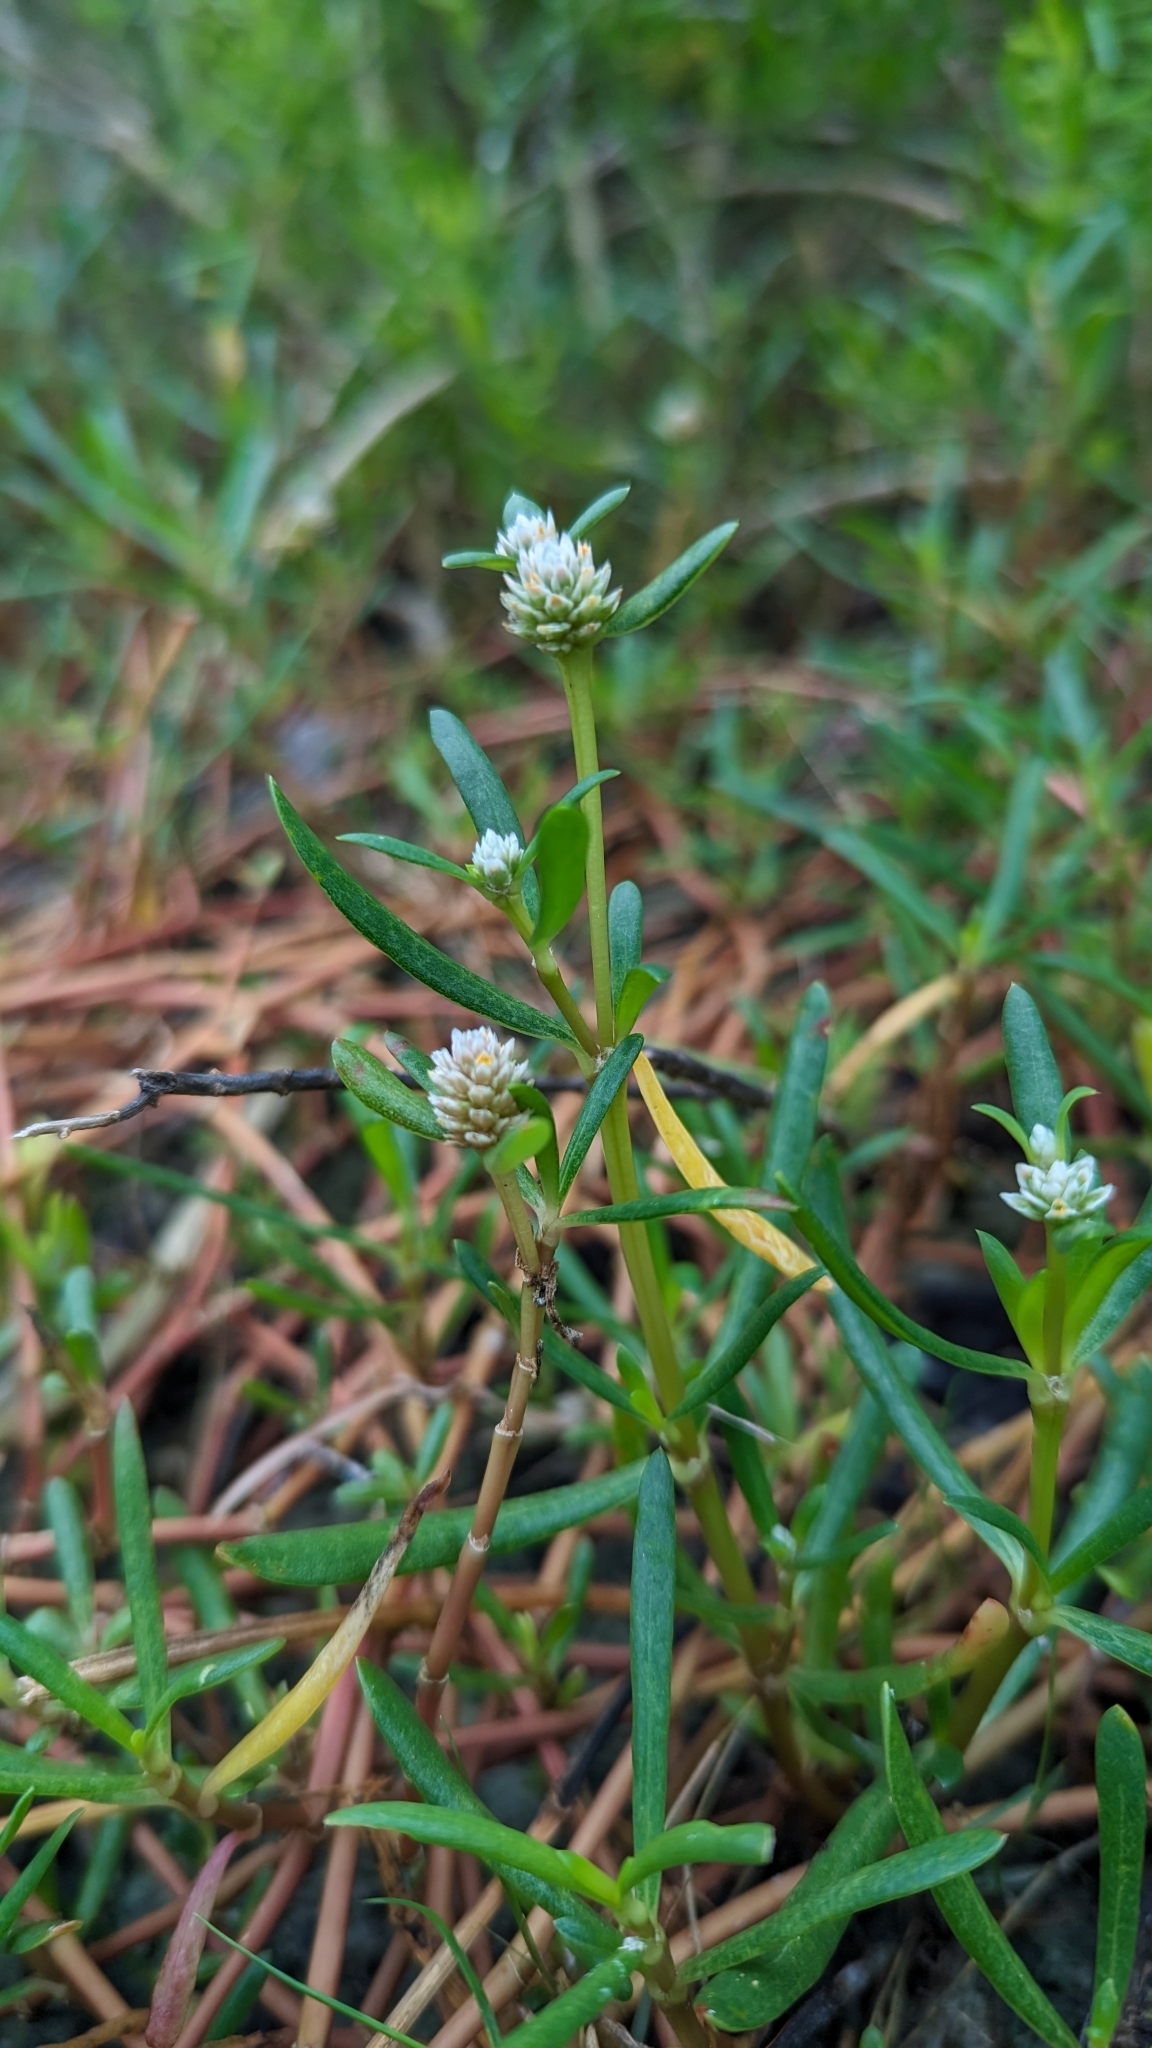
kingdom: Plantae
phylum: Tracheophyta
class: Magnoliopsida
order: Caryophyllales
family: Amaranthaceae
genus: Gomphrena
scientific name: Gomphrena vermicularis
